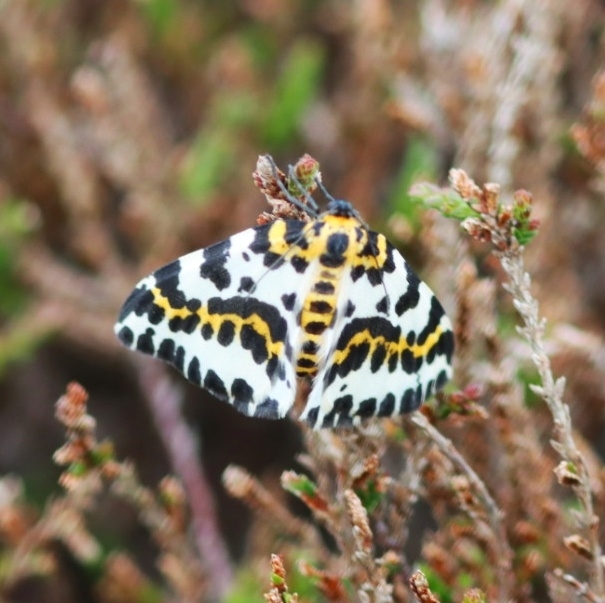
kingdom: Animalia
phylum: Arthropoda
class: Insecta
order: Lepidoptera
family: Geometridae
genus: Abraxas
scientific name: Abraxas grossulariata
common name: Magpie
